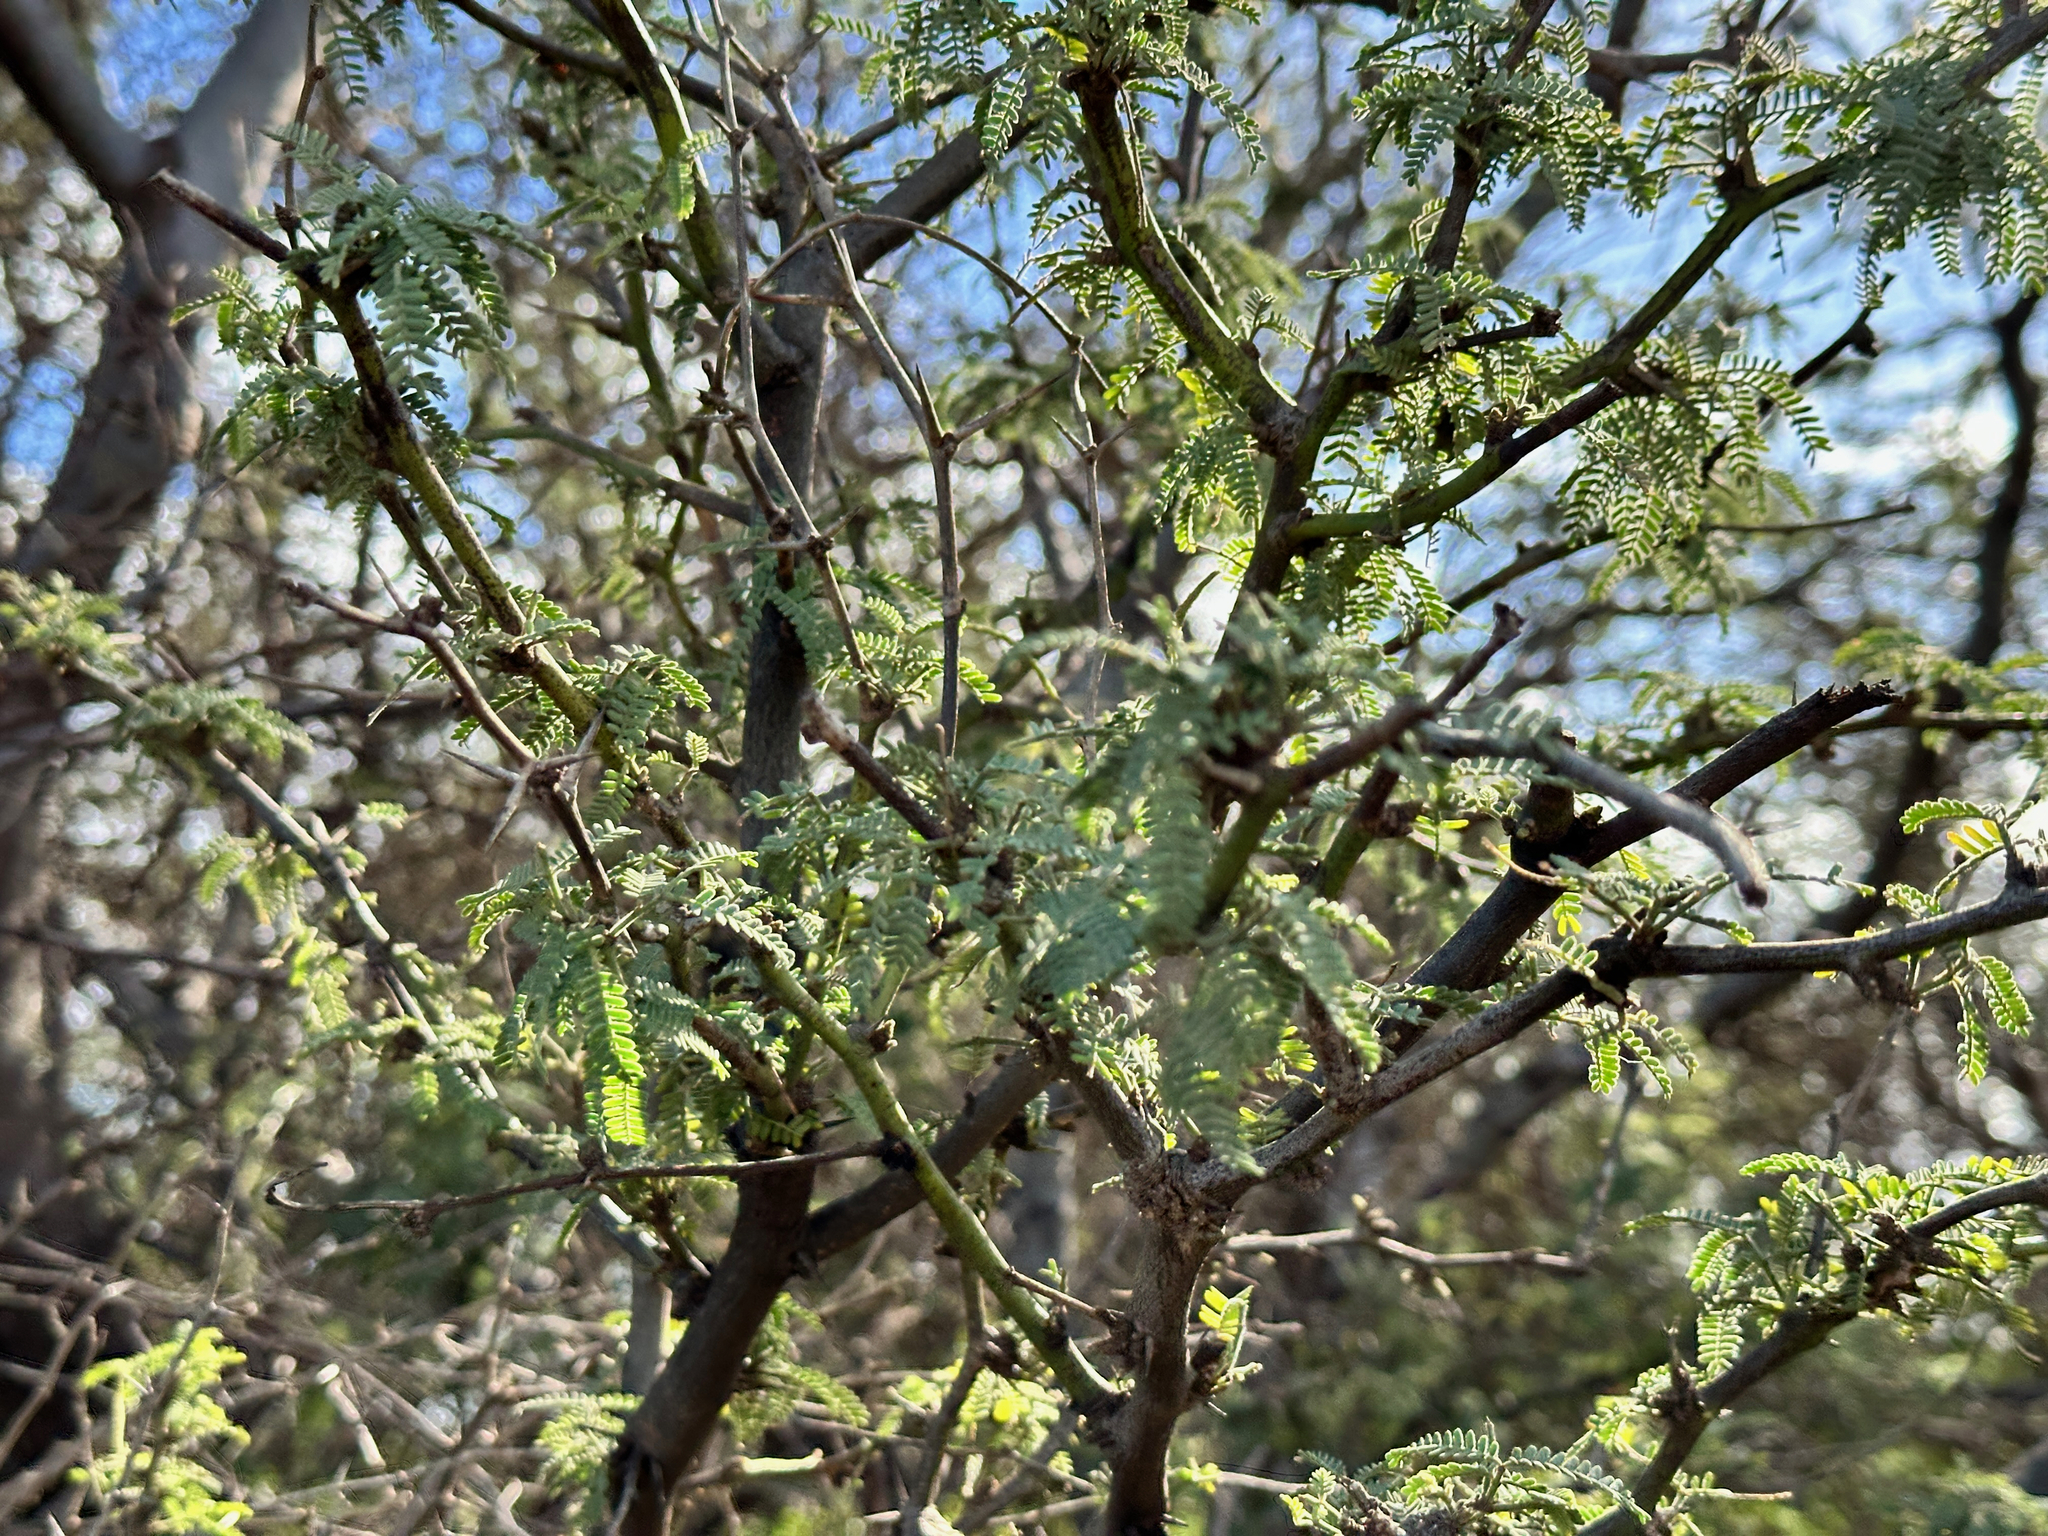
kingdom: Plantae
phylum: Tracheophyta
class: Magnoliopsida
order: Fabales
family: Fabaceae
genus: Prosopis
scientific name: Prosopis pallida
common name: Mesquite
